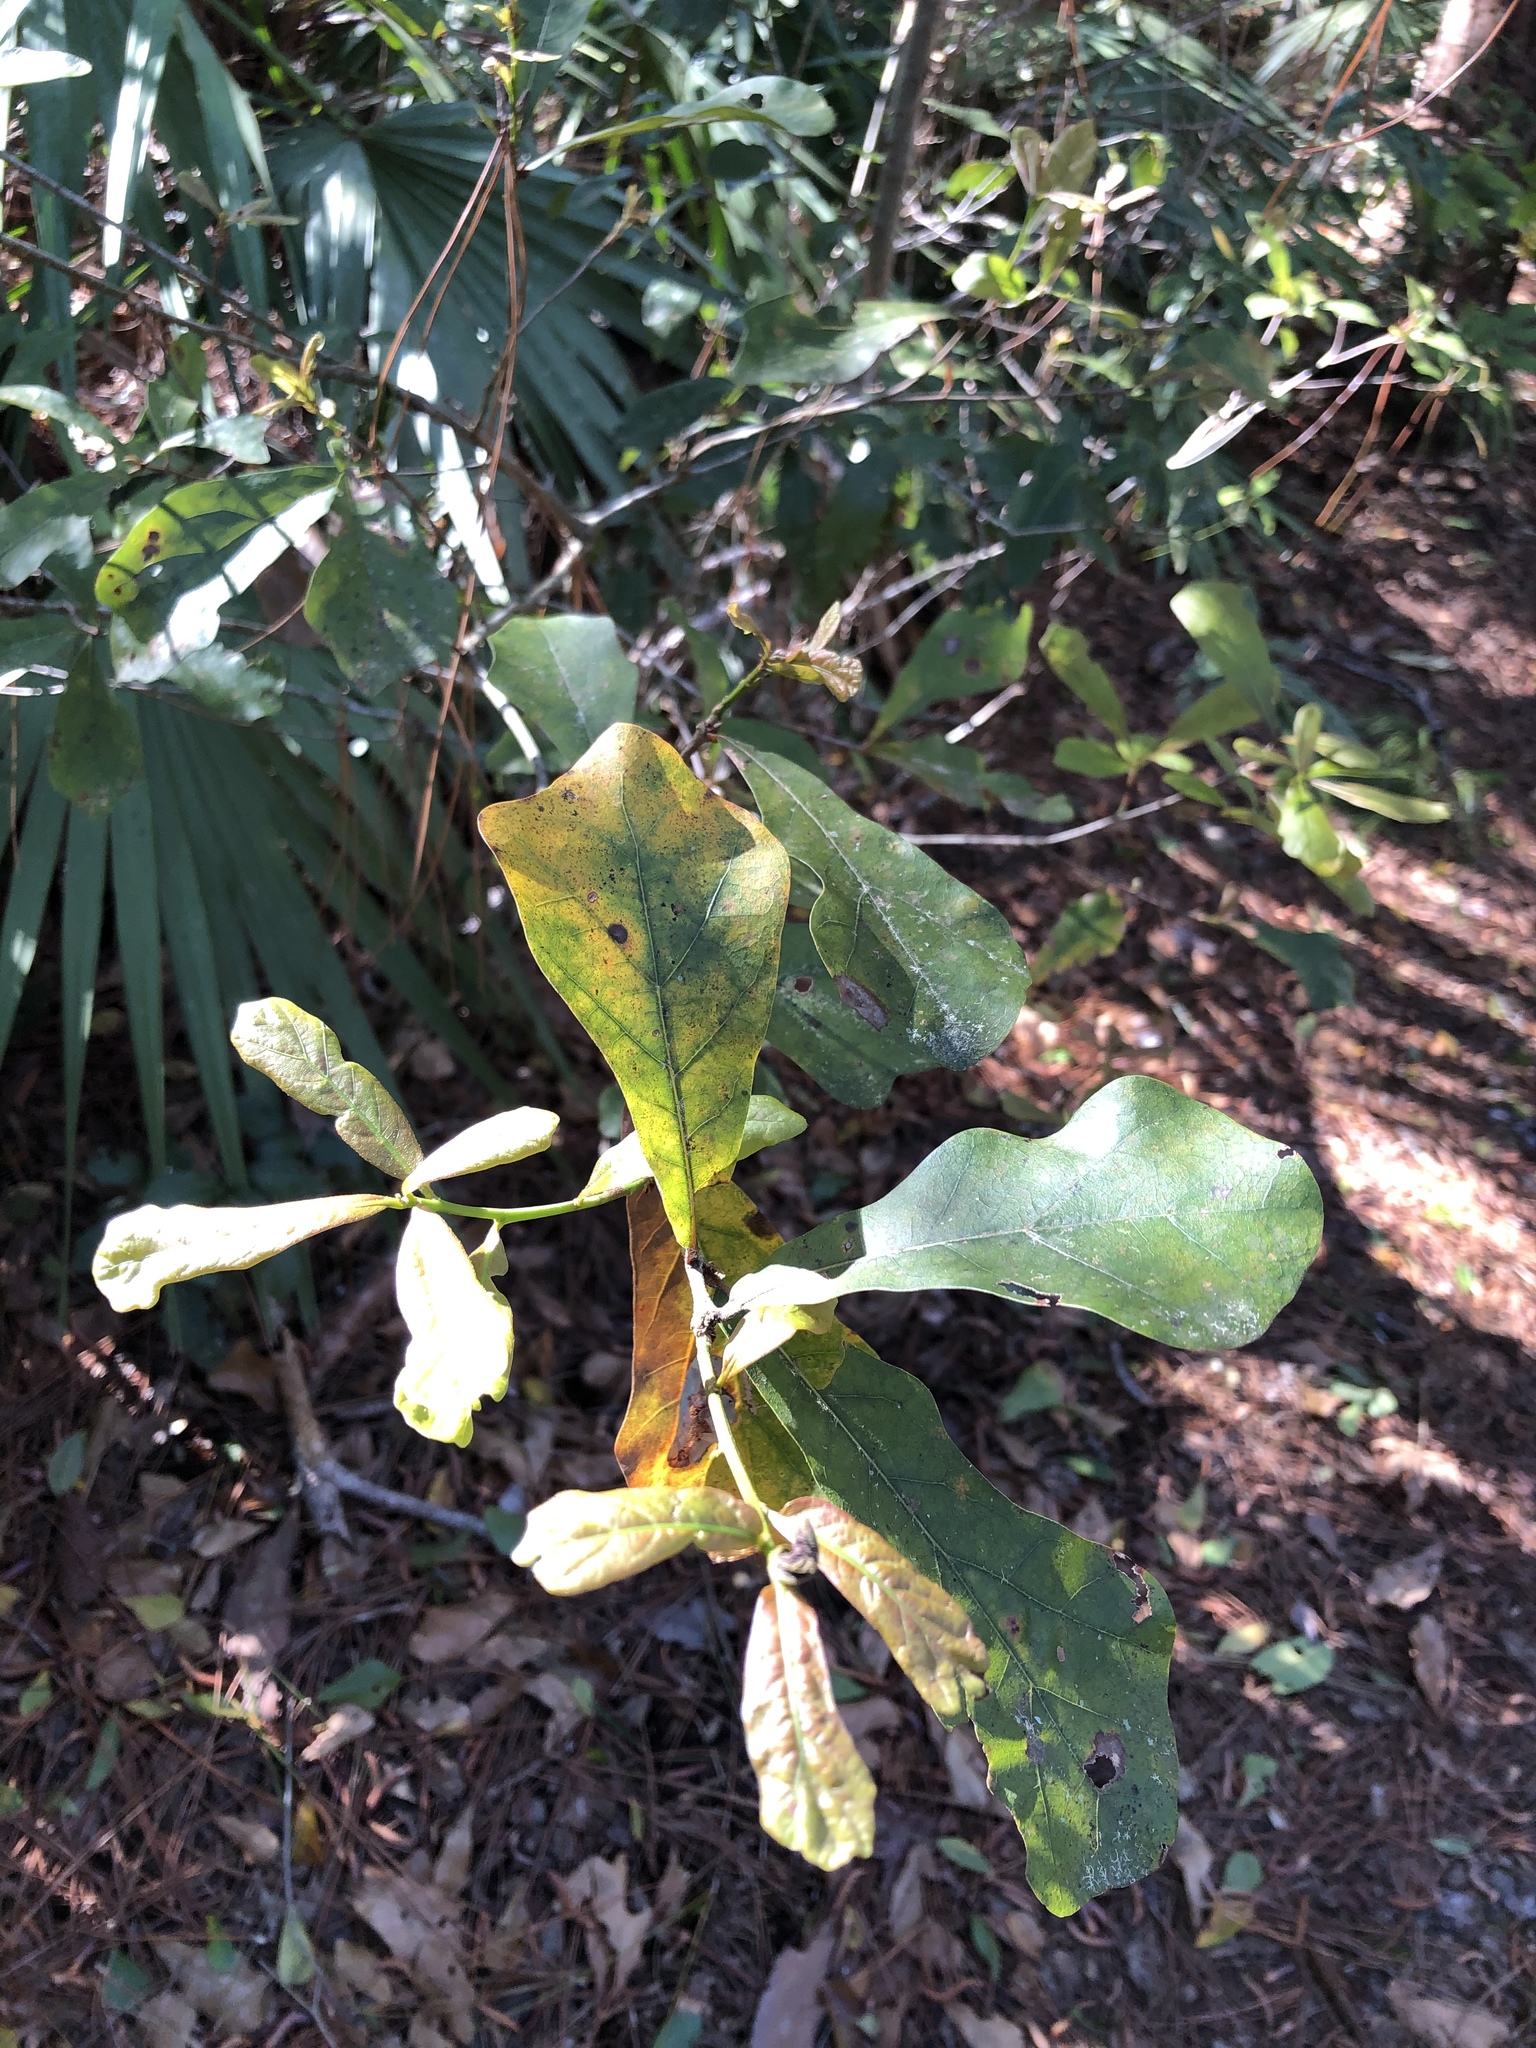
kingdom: Plantae
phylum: Tracheophyta
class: Magnoliopsida
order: Fagales
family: Fagaceae
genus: Quercus
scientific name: Quercus nigra
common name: Water oak
